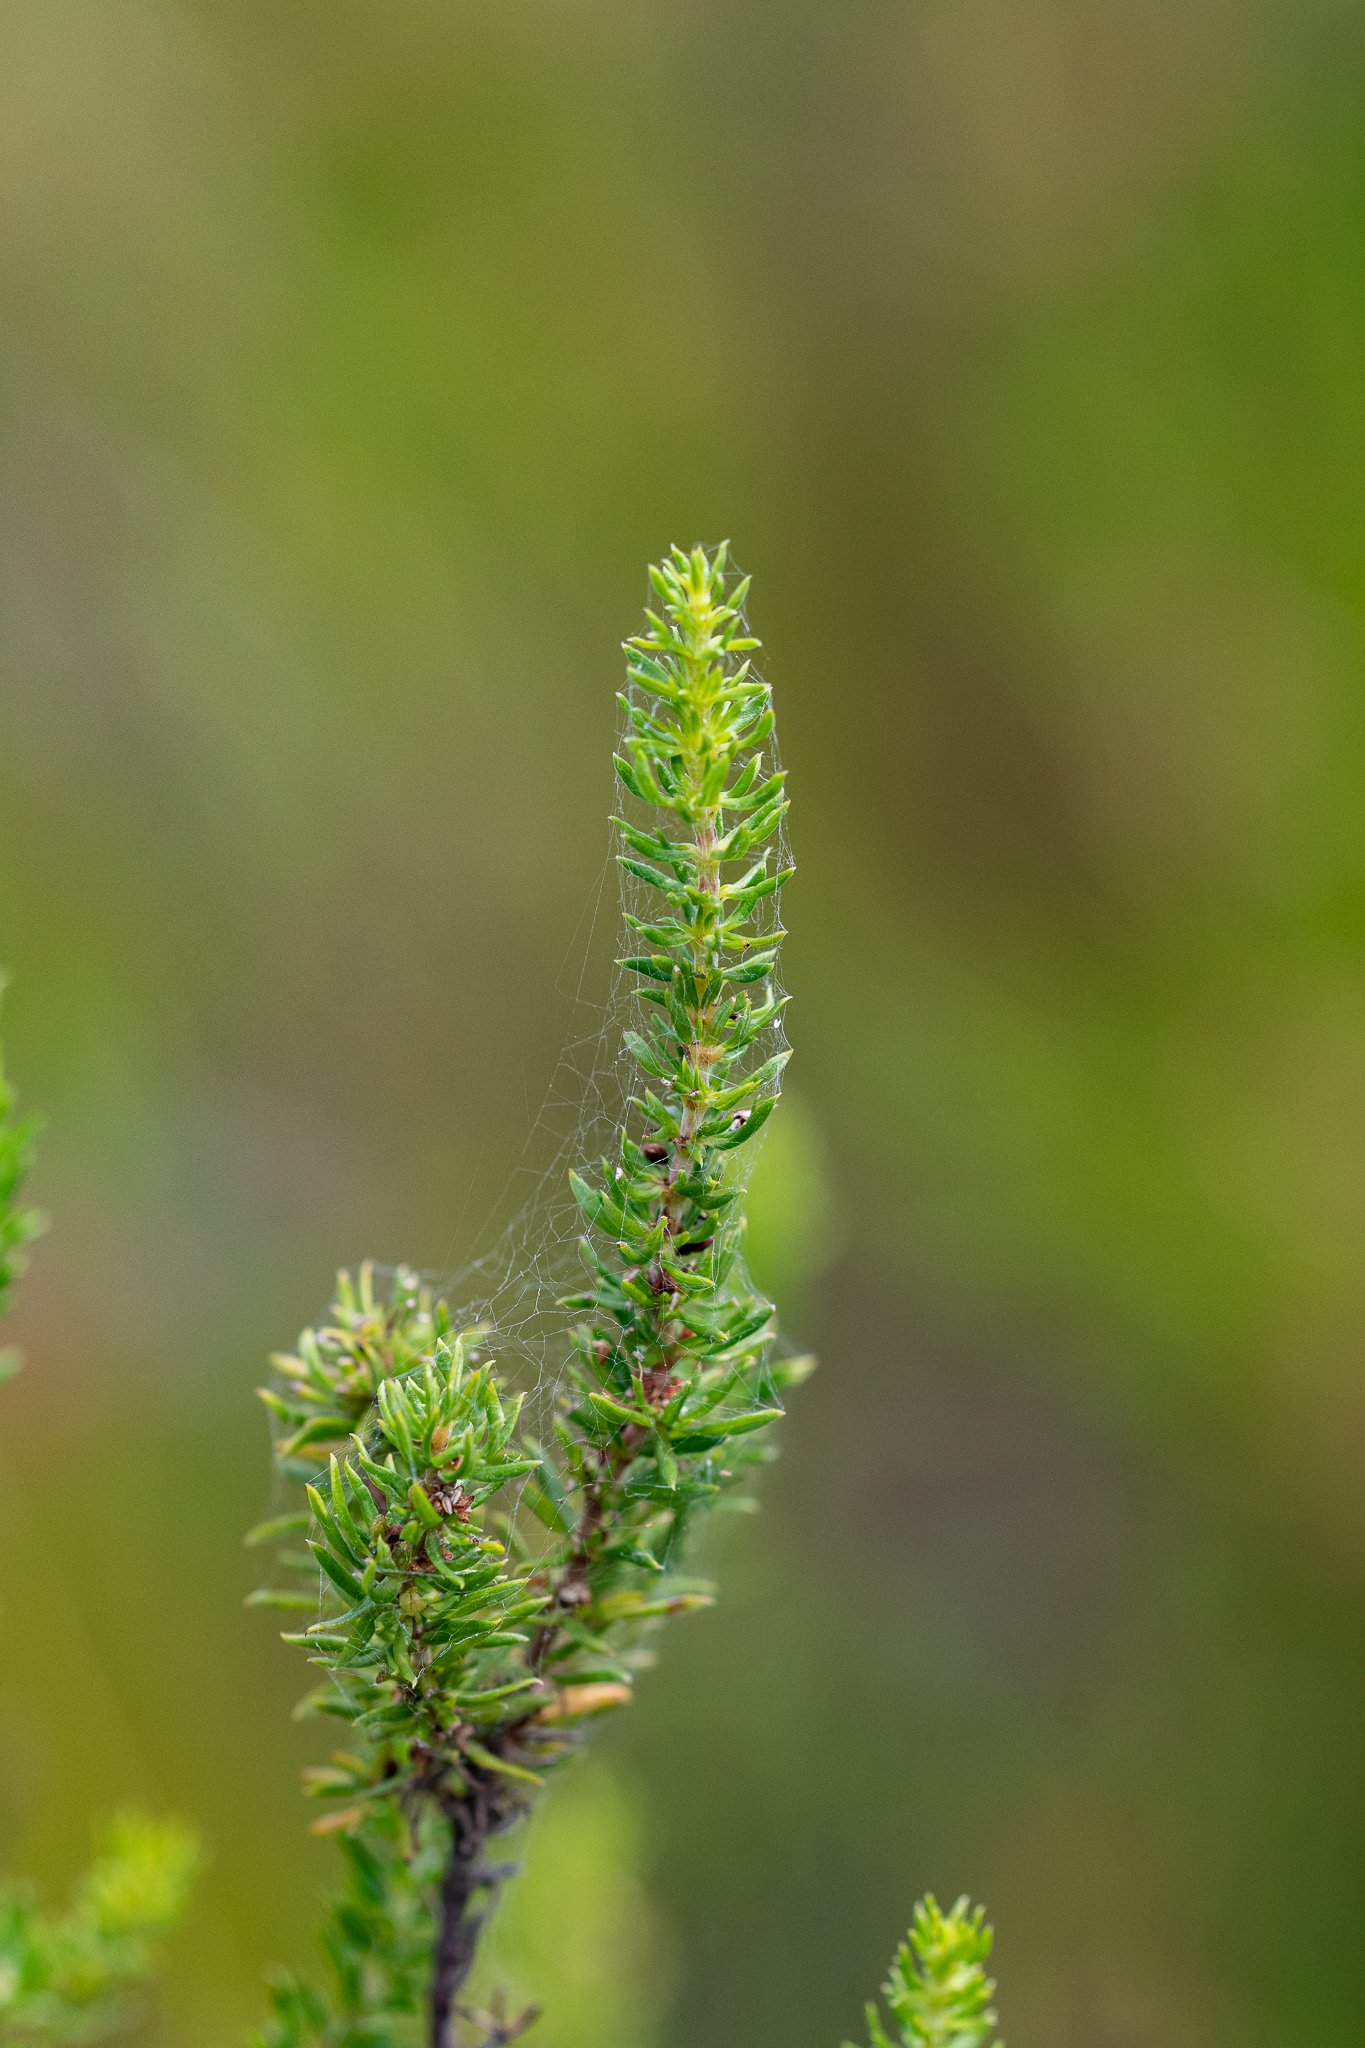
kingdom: Plantae
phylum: Tracheophyta
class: Magnoliopsida
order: Gentianales
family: Rubiaceae
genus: Anthospermum
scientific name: Anthospermum aethiopicum
